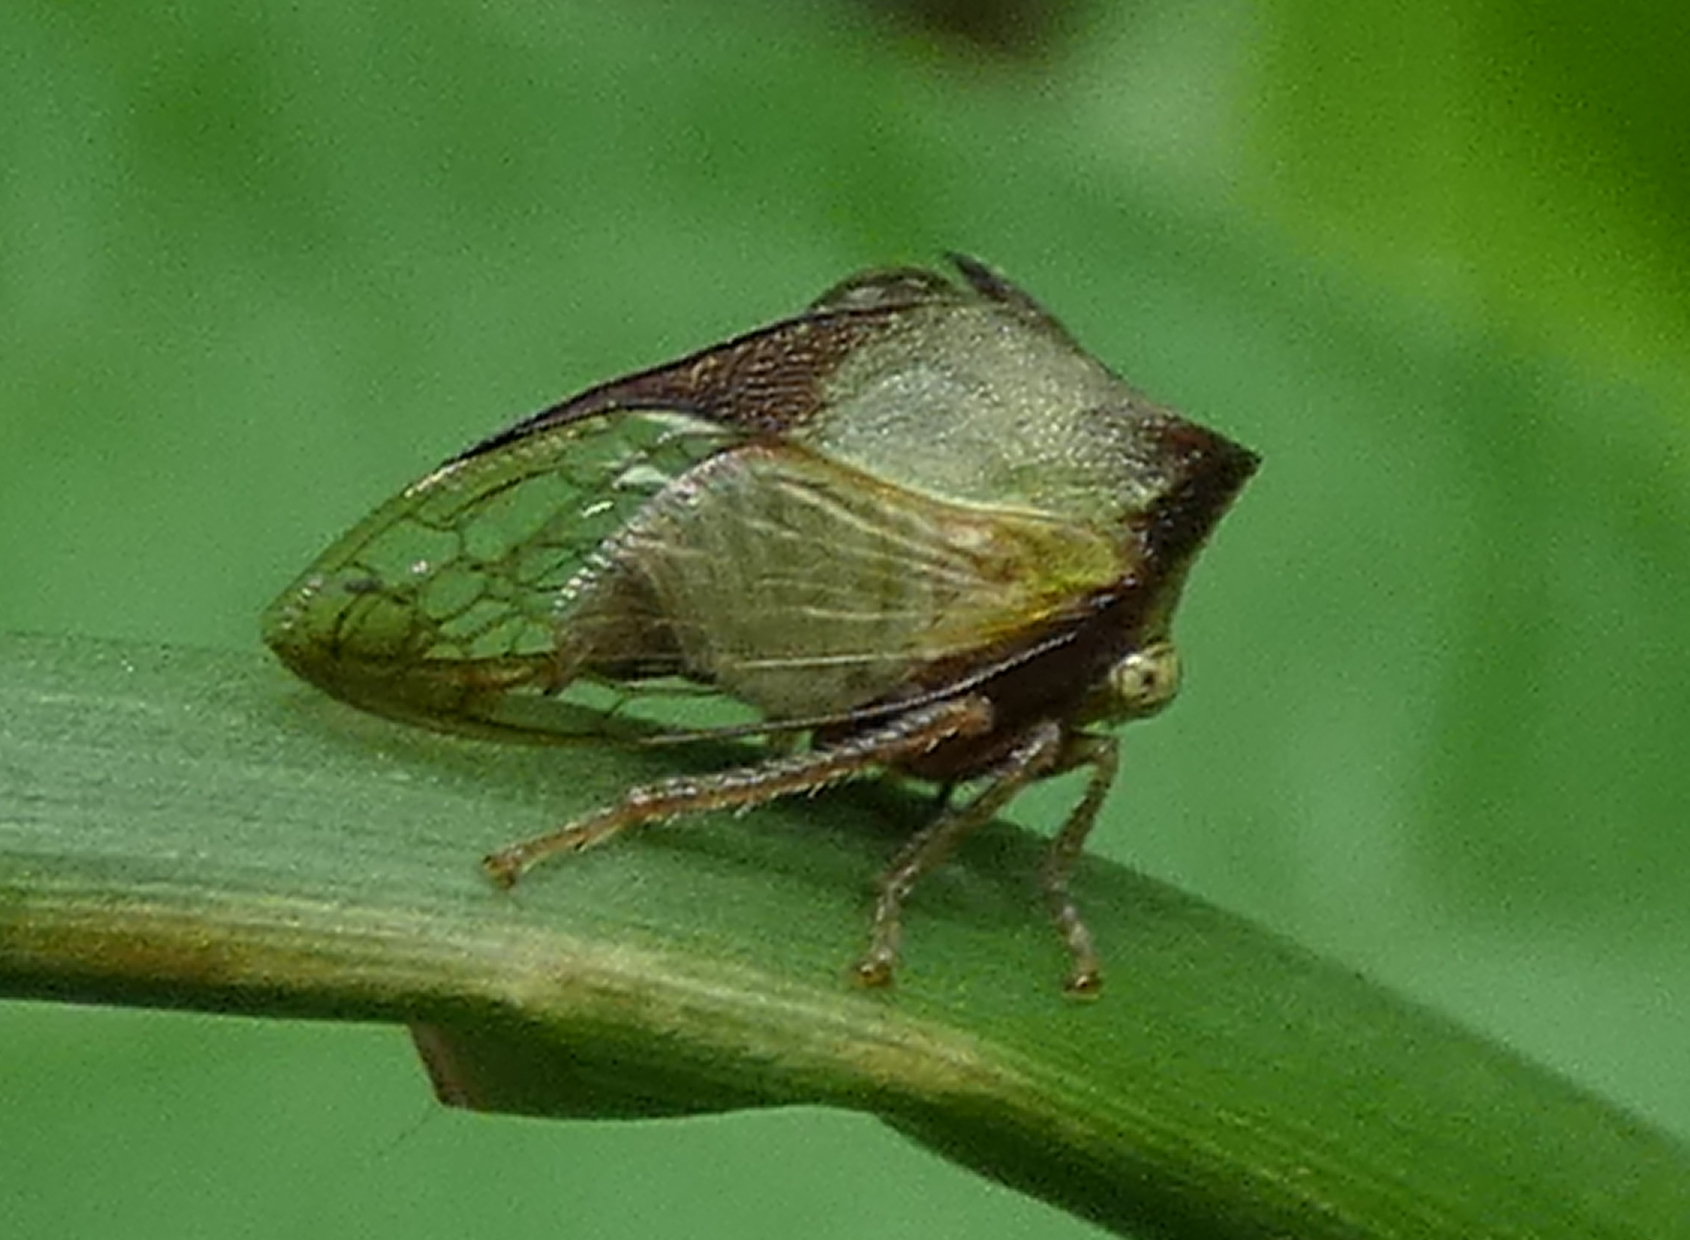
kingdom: Animalia
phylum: Arthropoda
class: Insecta
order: Hemiptera
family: Membracidae
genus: Ceresa
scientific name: Ceresa ustulata
